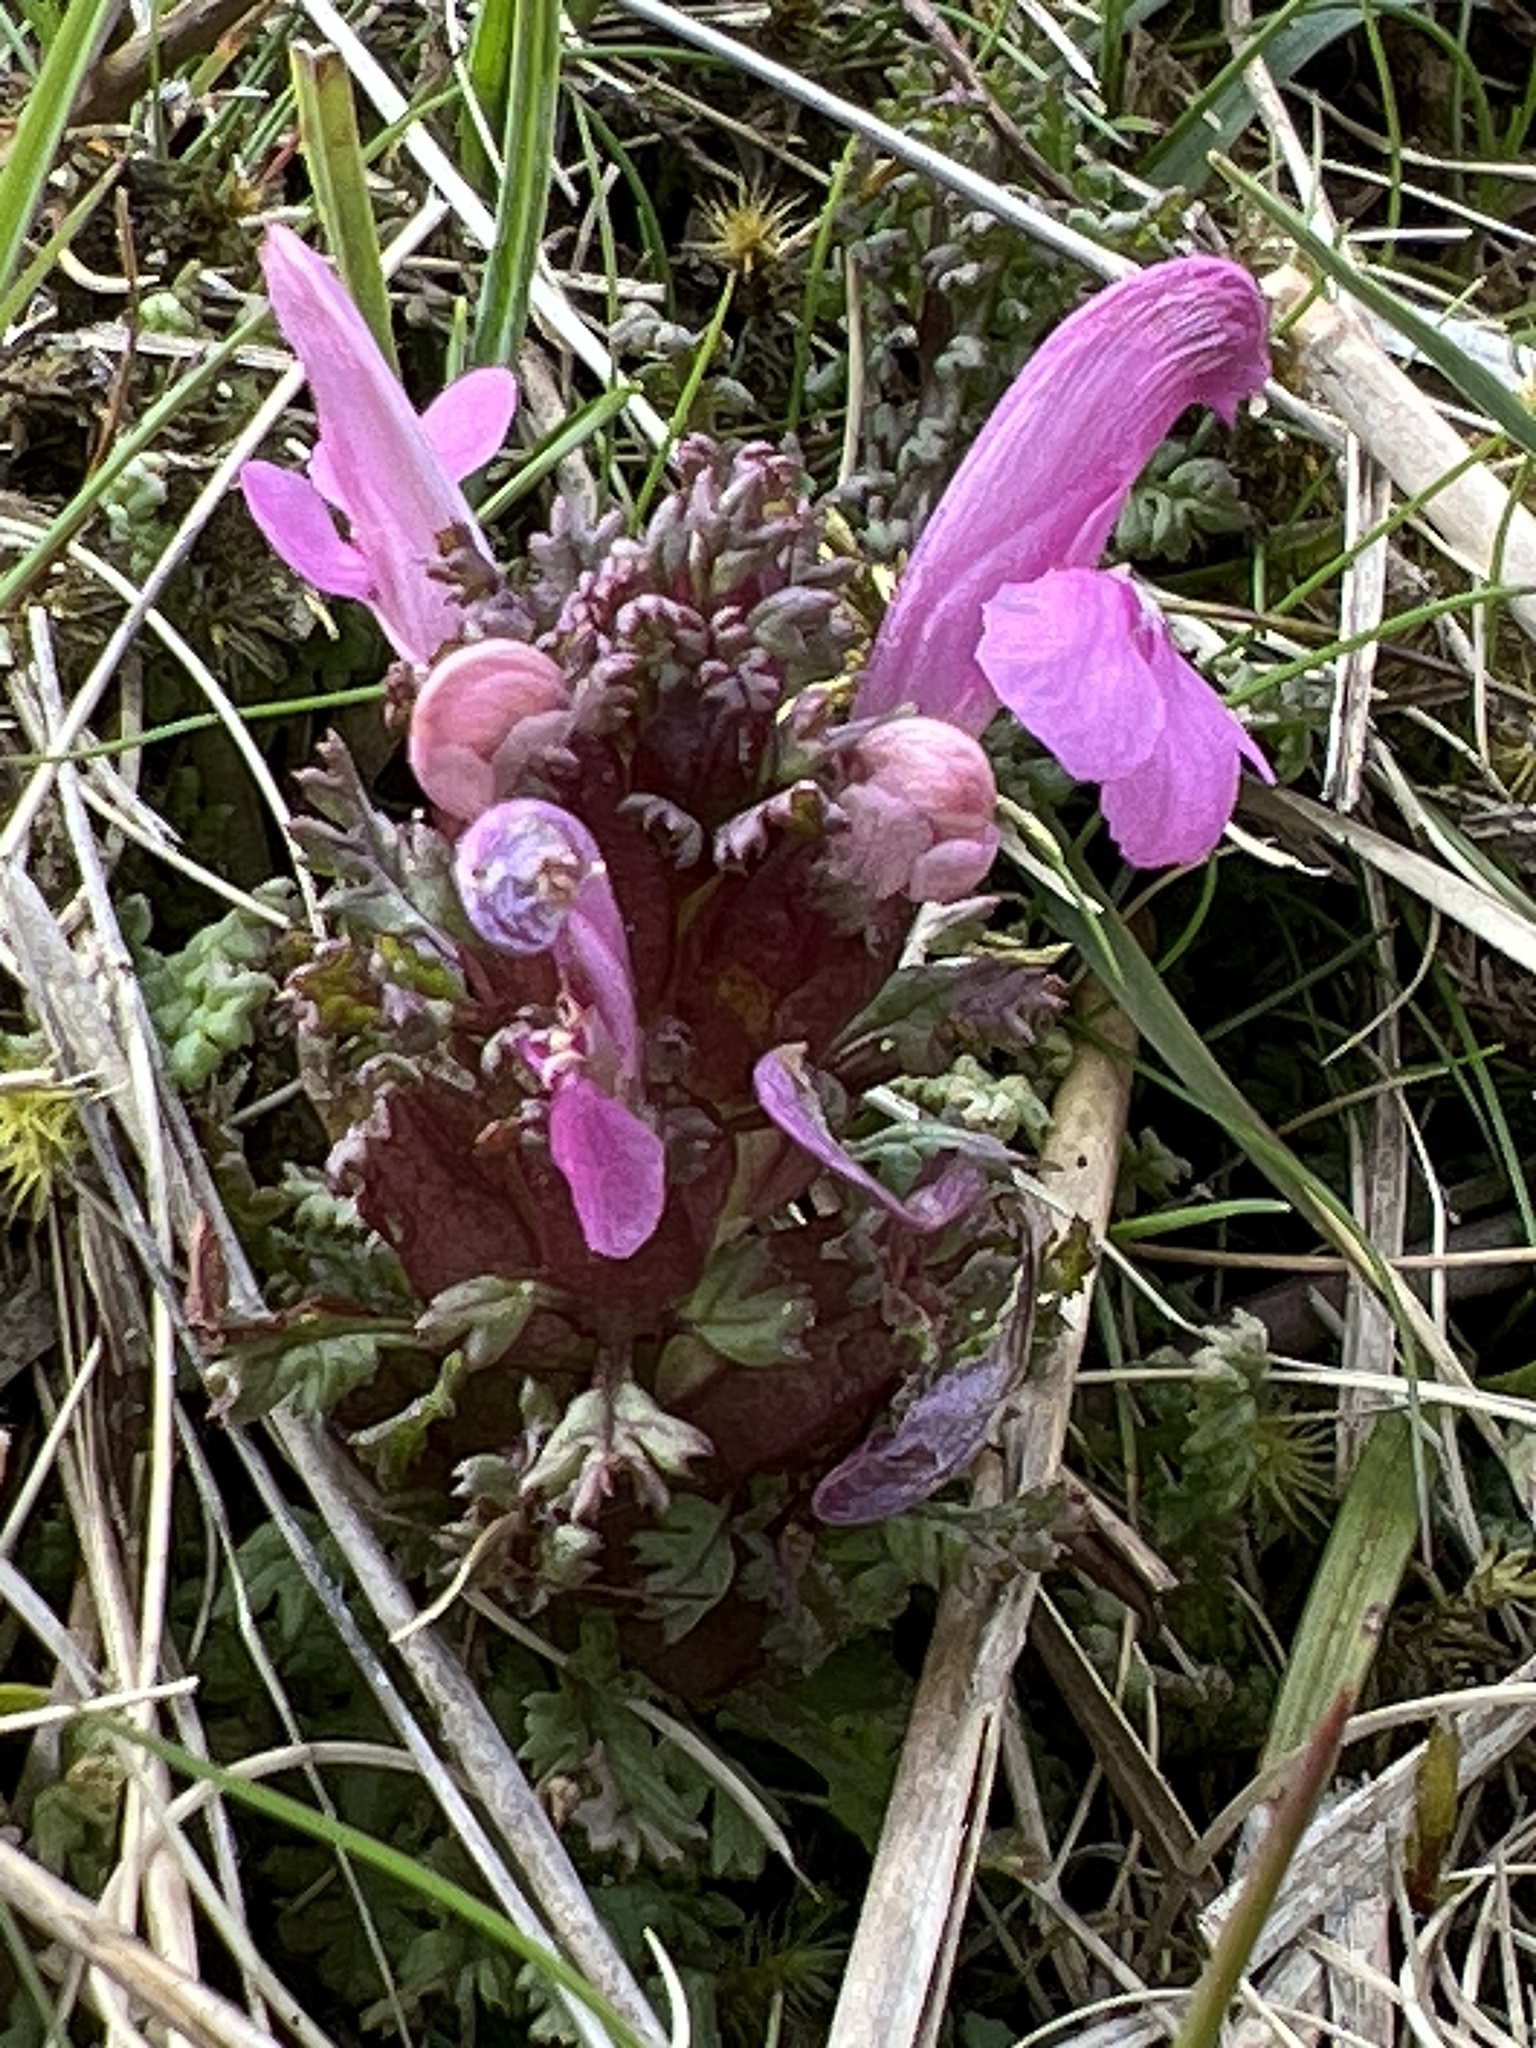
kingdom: Plantae
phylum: Tracheophyta
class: Magnoliopsida
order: Lamiales
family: Orobanchaceae
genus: Pedicularis
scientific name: Pedicularis sylvatica
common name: Lousewort
